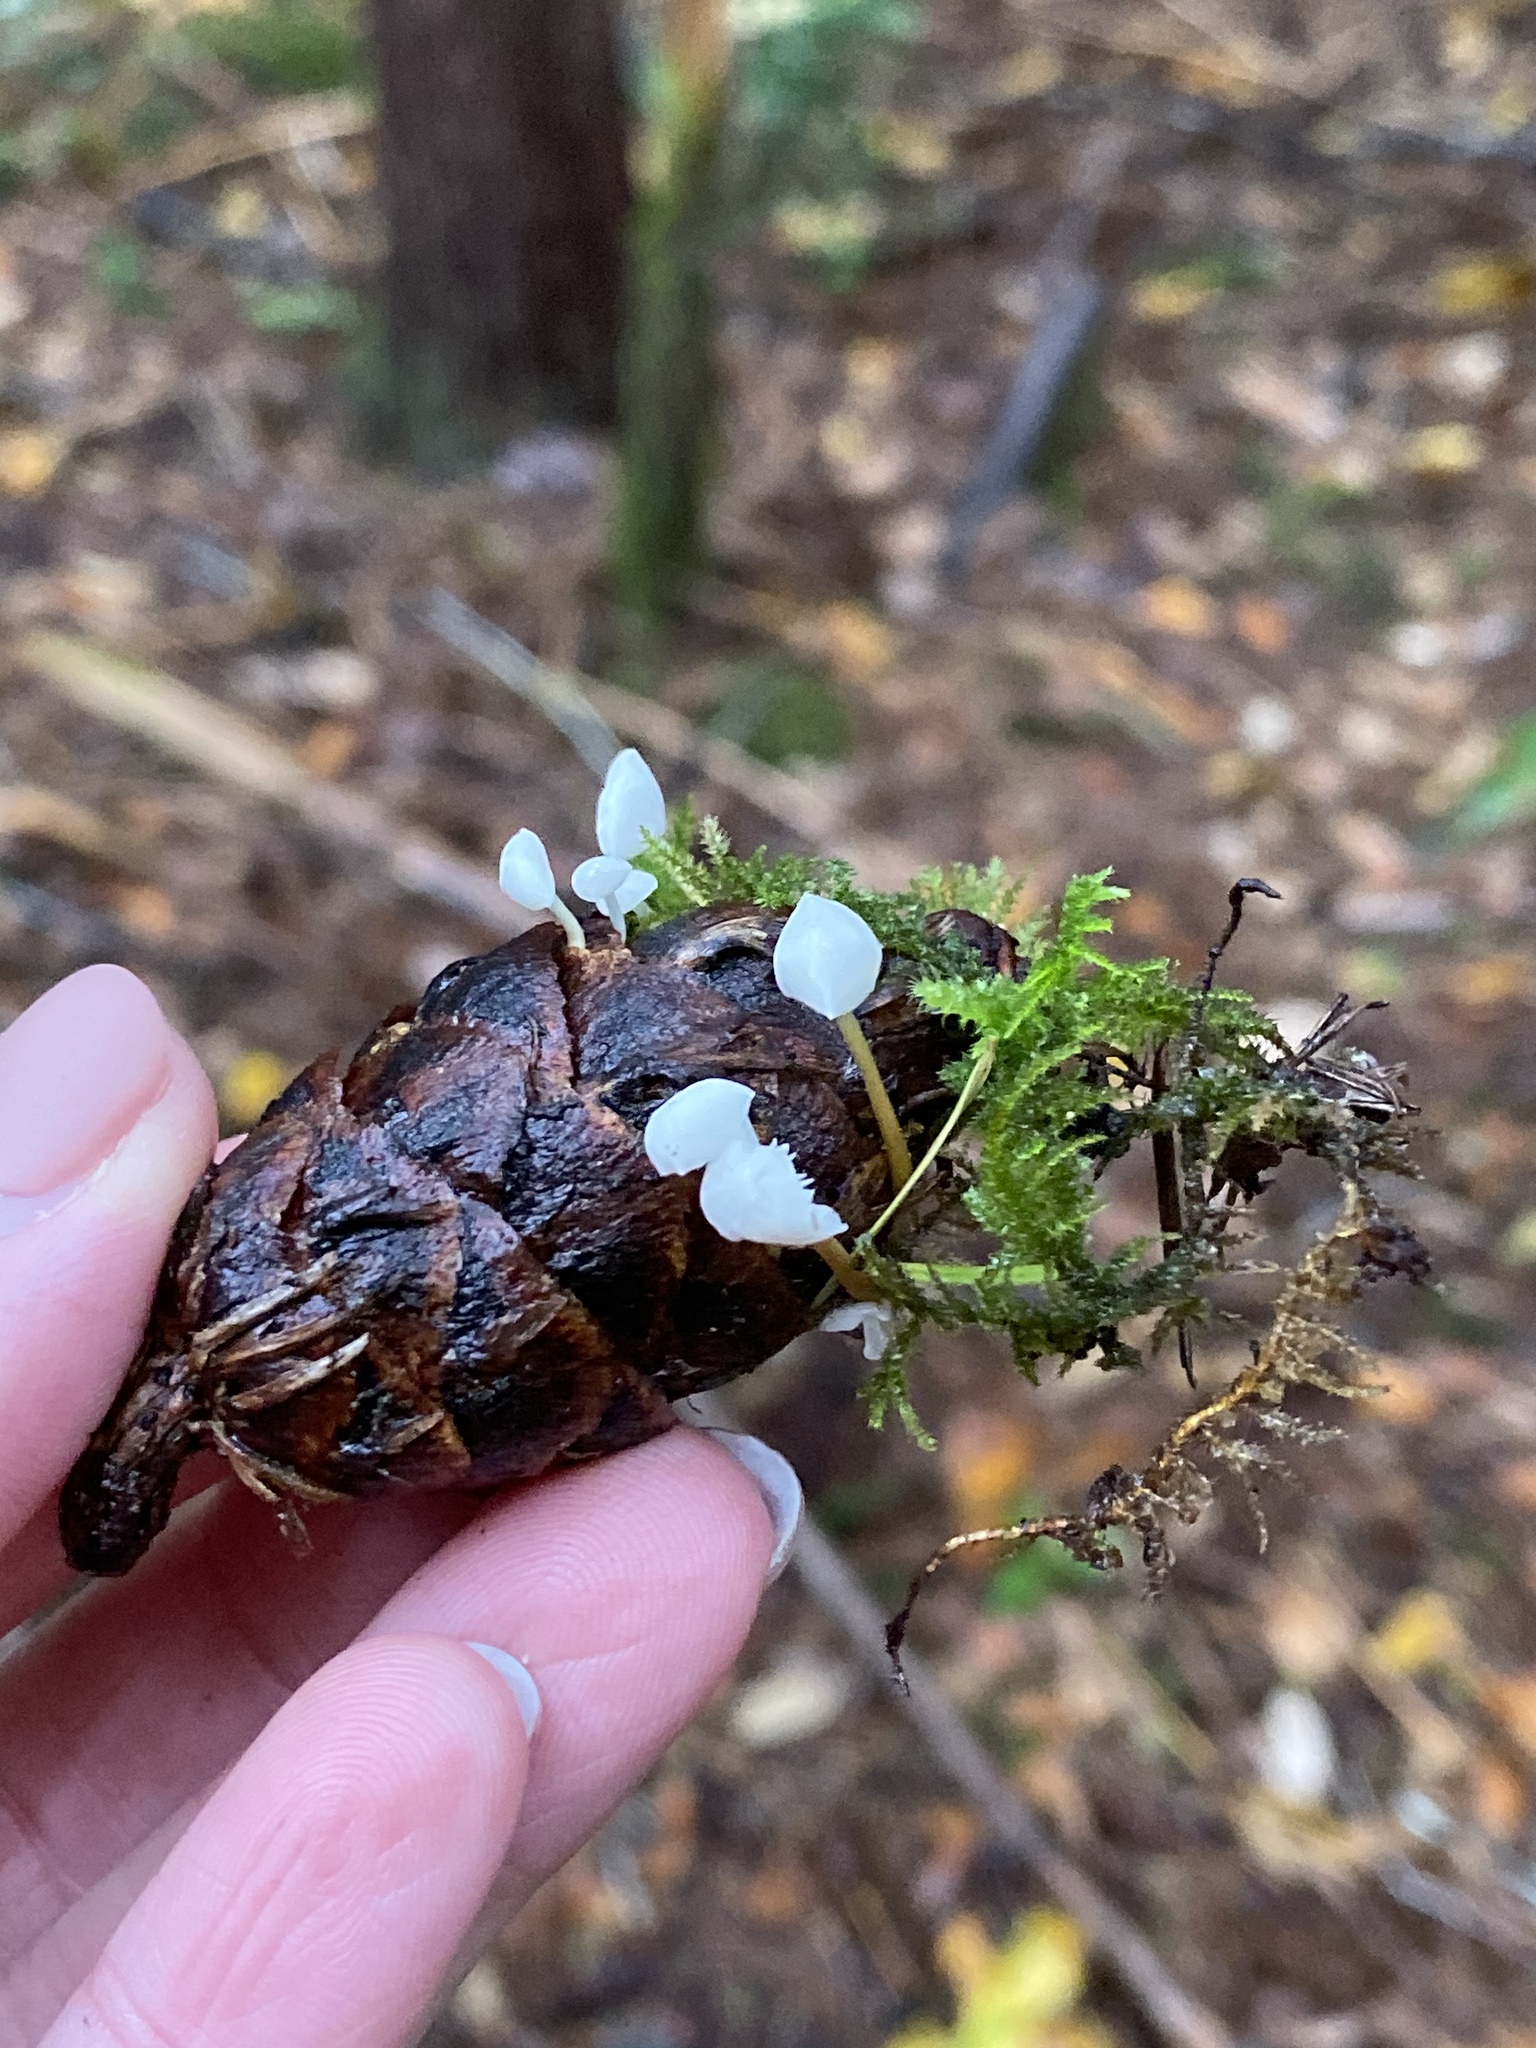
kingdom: Fungi
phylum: Basidiomycota
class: Agaricomycetes
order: Agaricales
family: Physalacriaceae
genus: Strobilurus
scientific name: Strobilurus trullisatus
